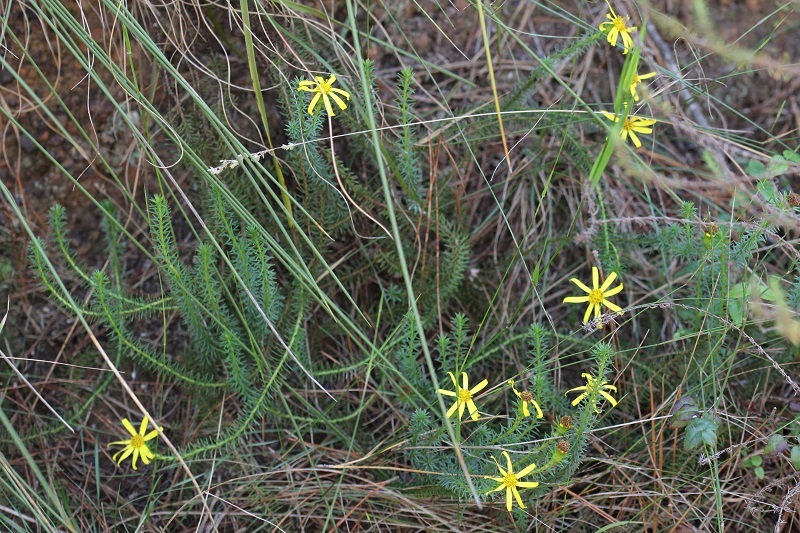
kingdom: Plantae
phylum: Tracheophyta
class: Magnoliopsida
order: Asterales
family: Asteraceae
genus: Senecio
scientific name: Senecio pinifolius
